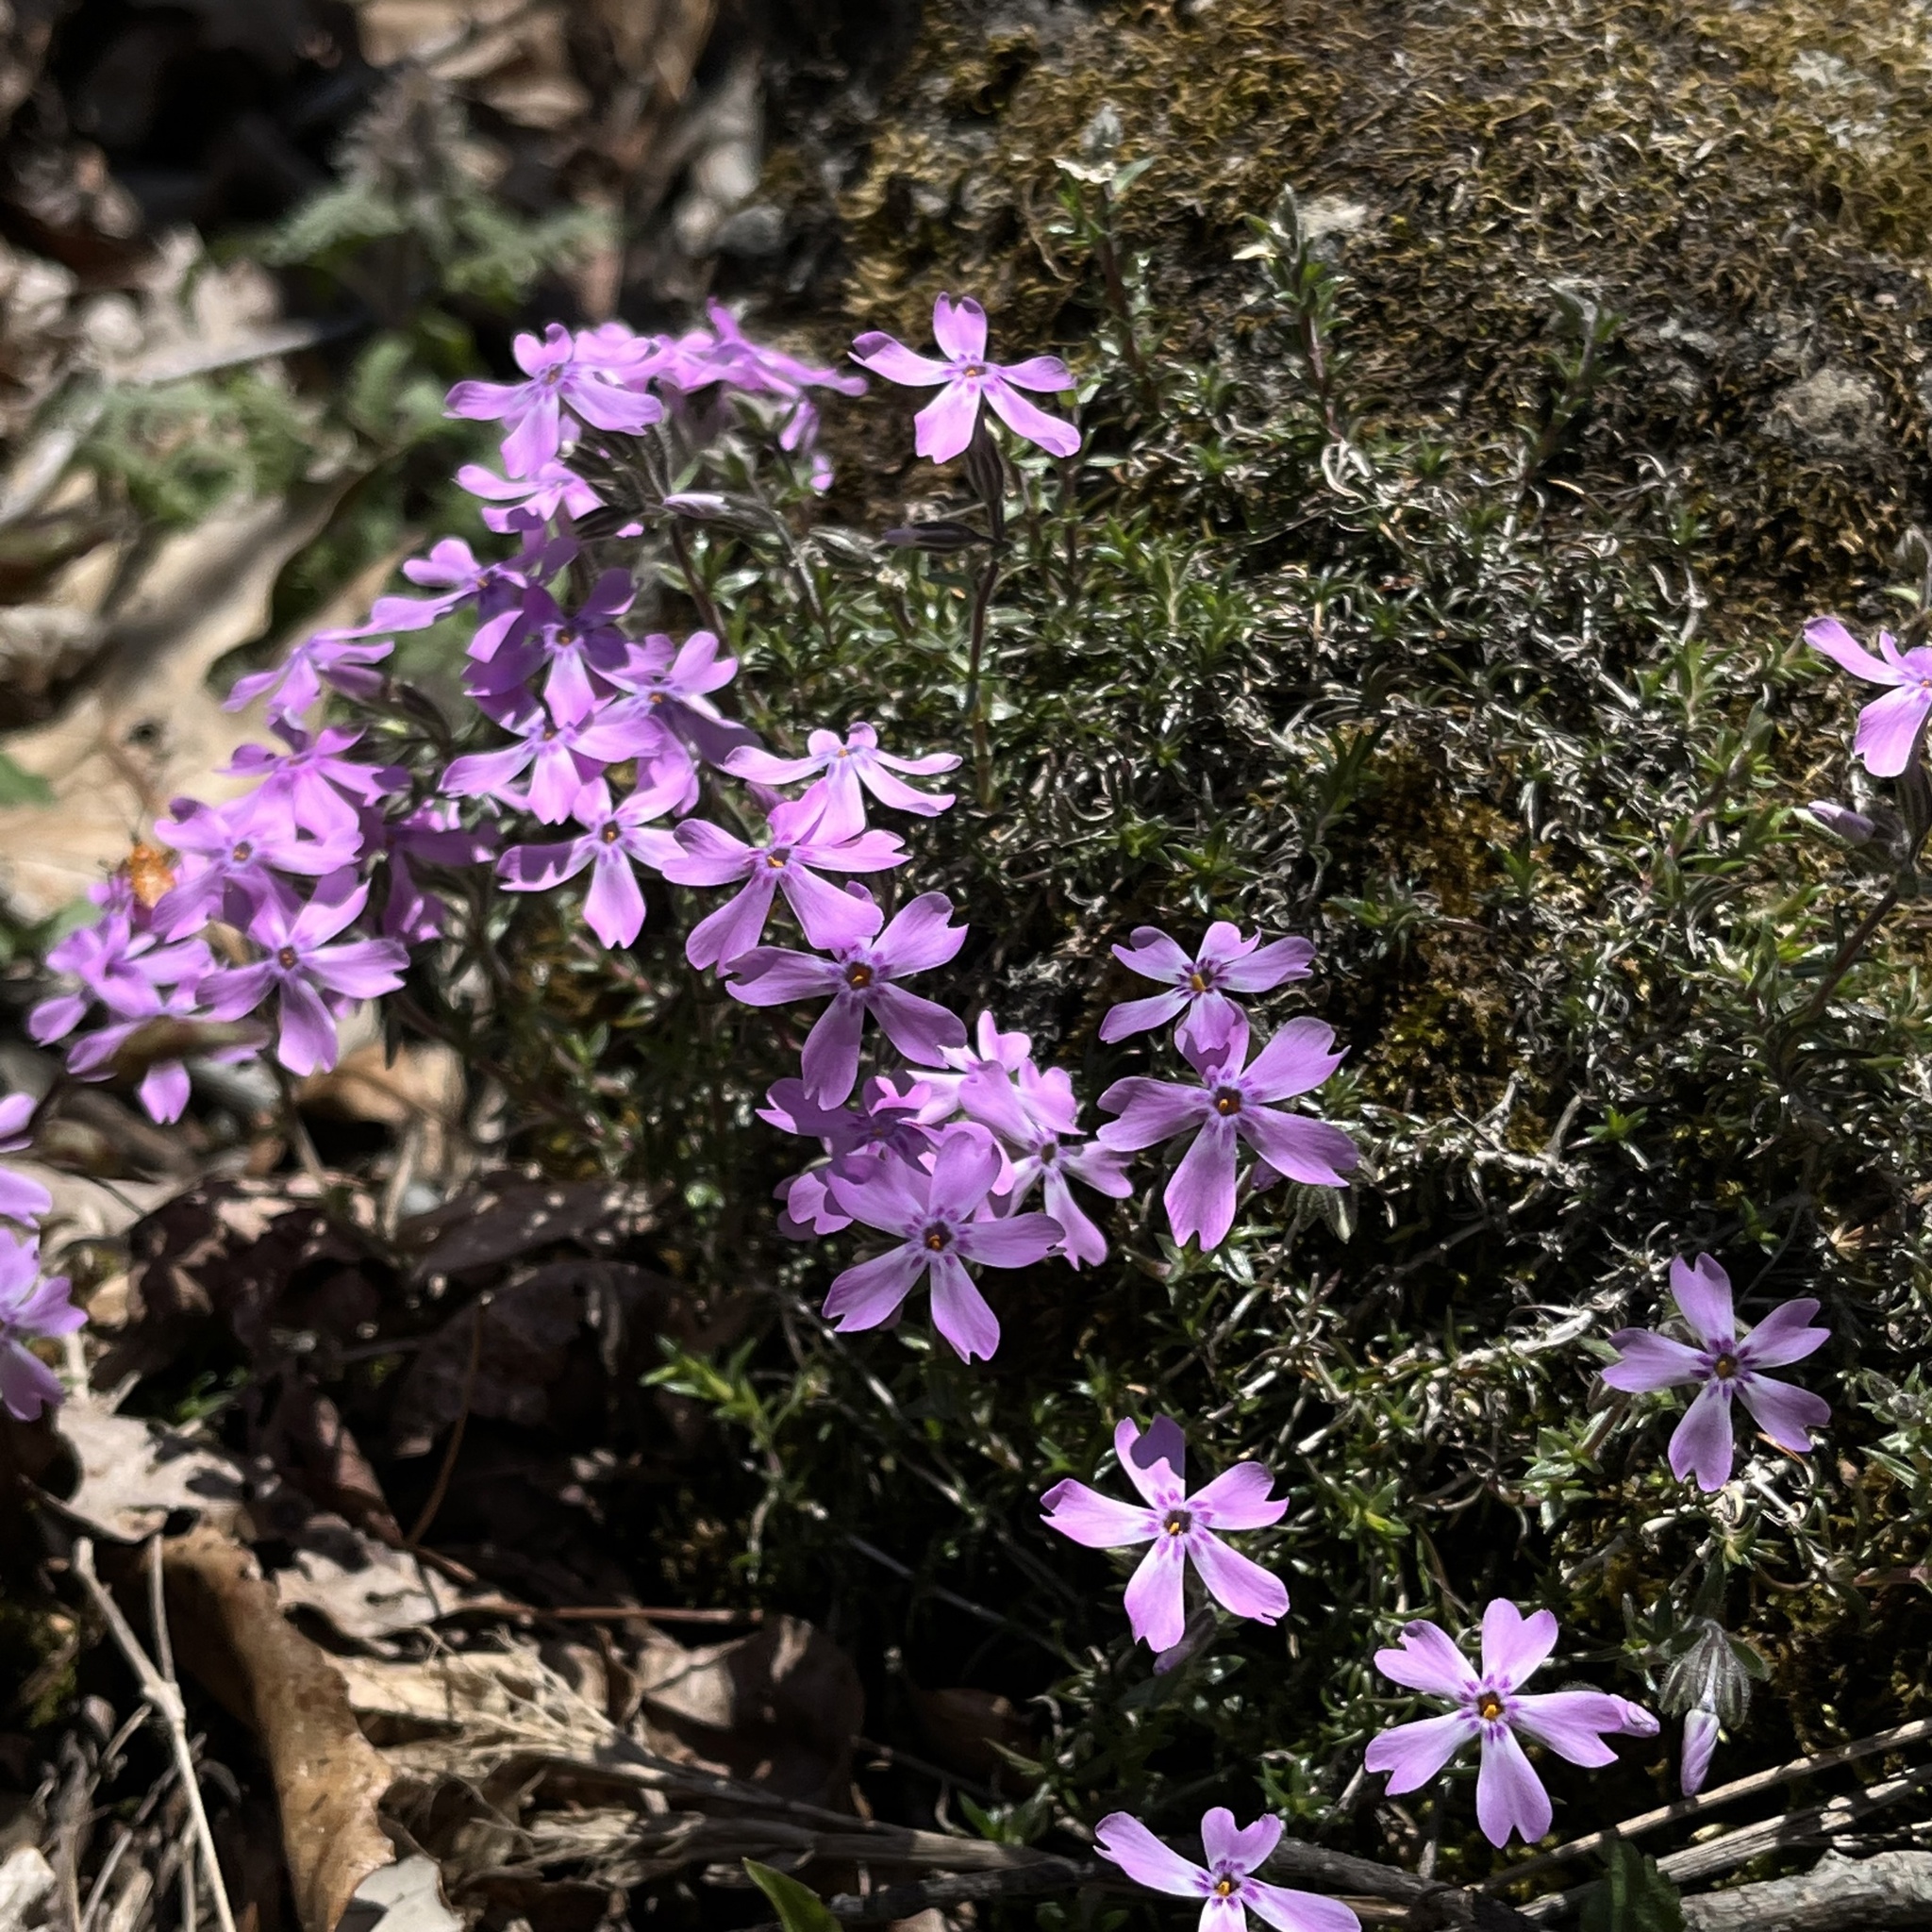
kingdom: Plantae
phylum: Tracheophyta
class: Magnoliopsida
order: Ericales
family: Polemoniaceae
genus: Phlox
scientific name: Phlox subulata
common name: Moss phlox
